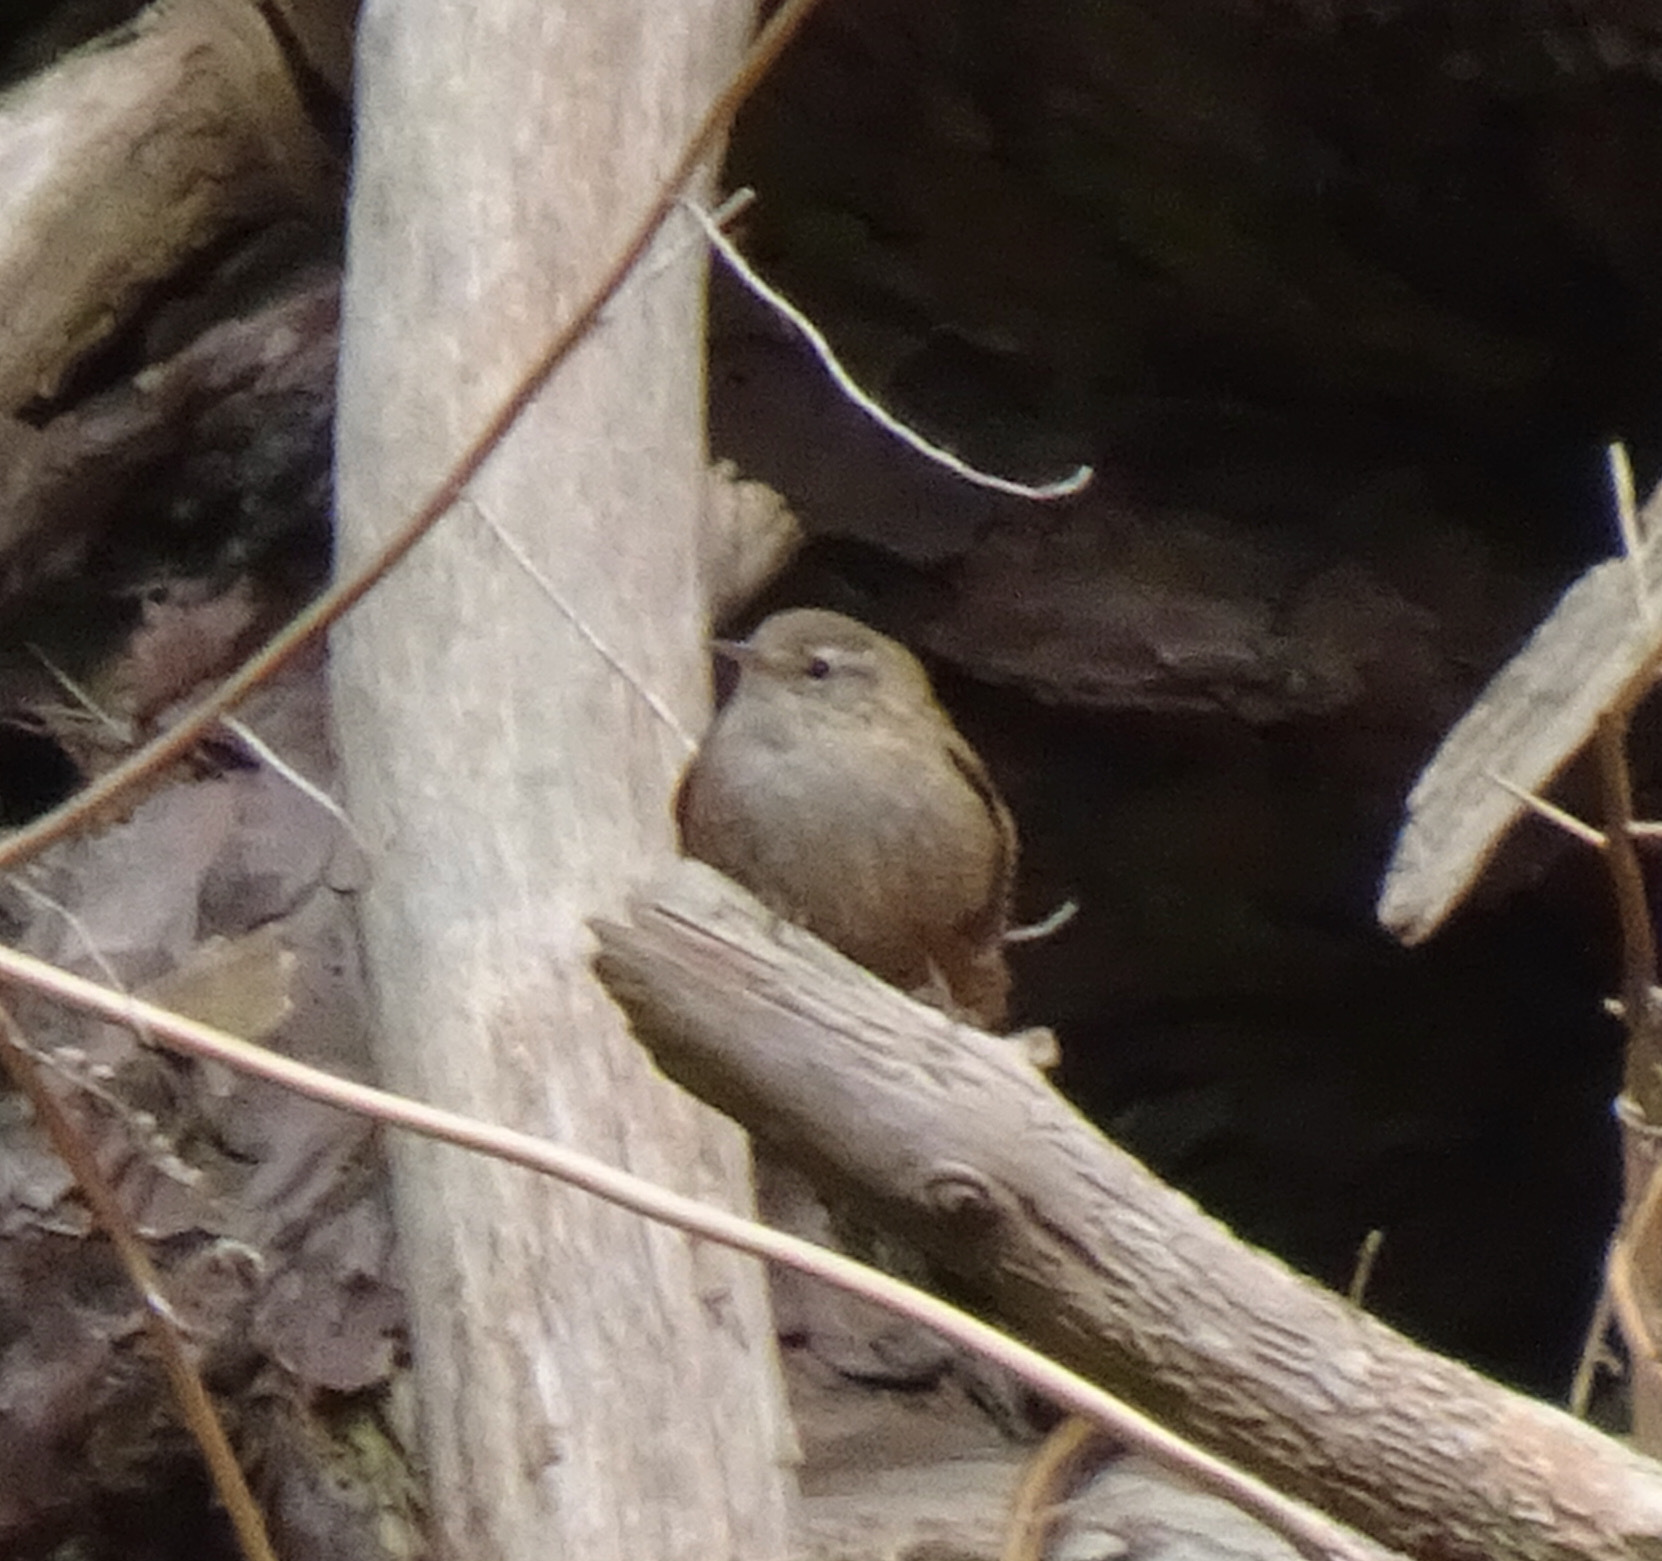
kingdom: Animalia
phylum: Chordata
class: Aves
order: Passeriformes
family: Troglodytidae
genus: Troglodytes
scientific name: Troglodytes troglodytes
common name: Eurasian wren
